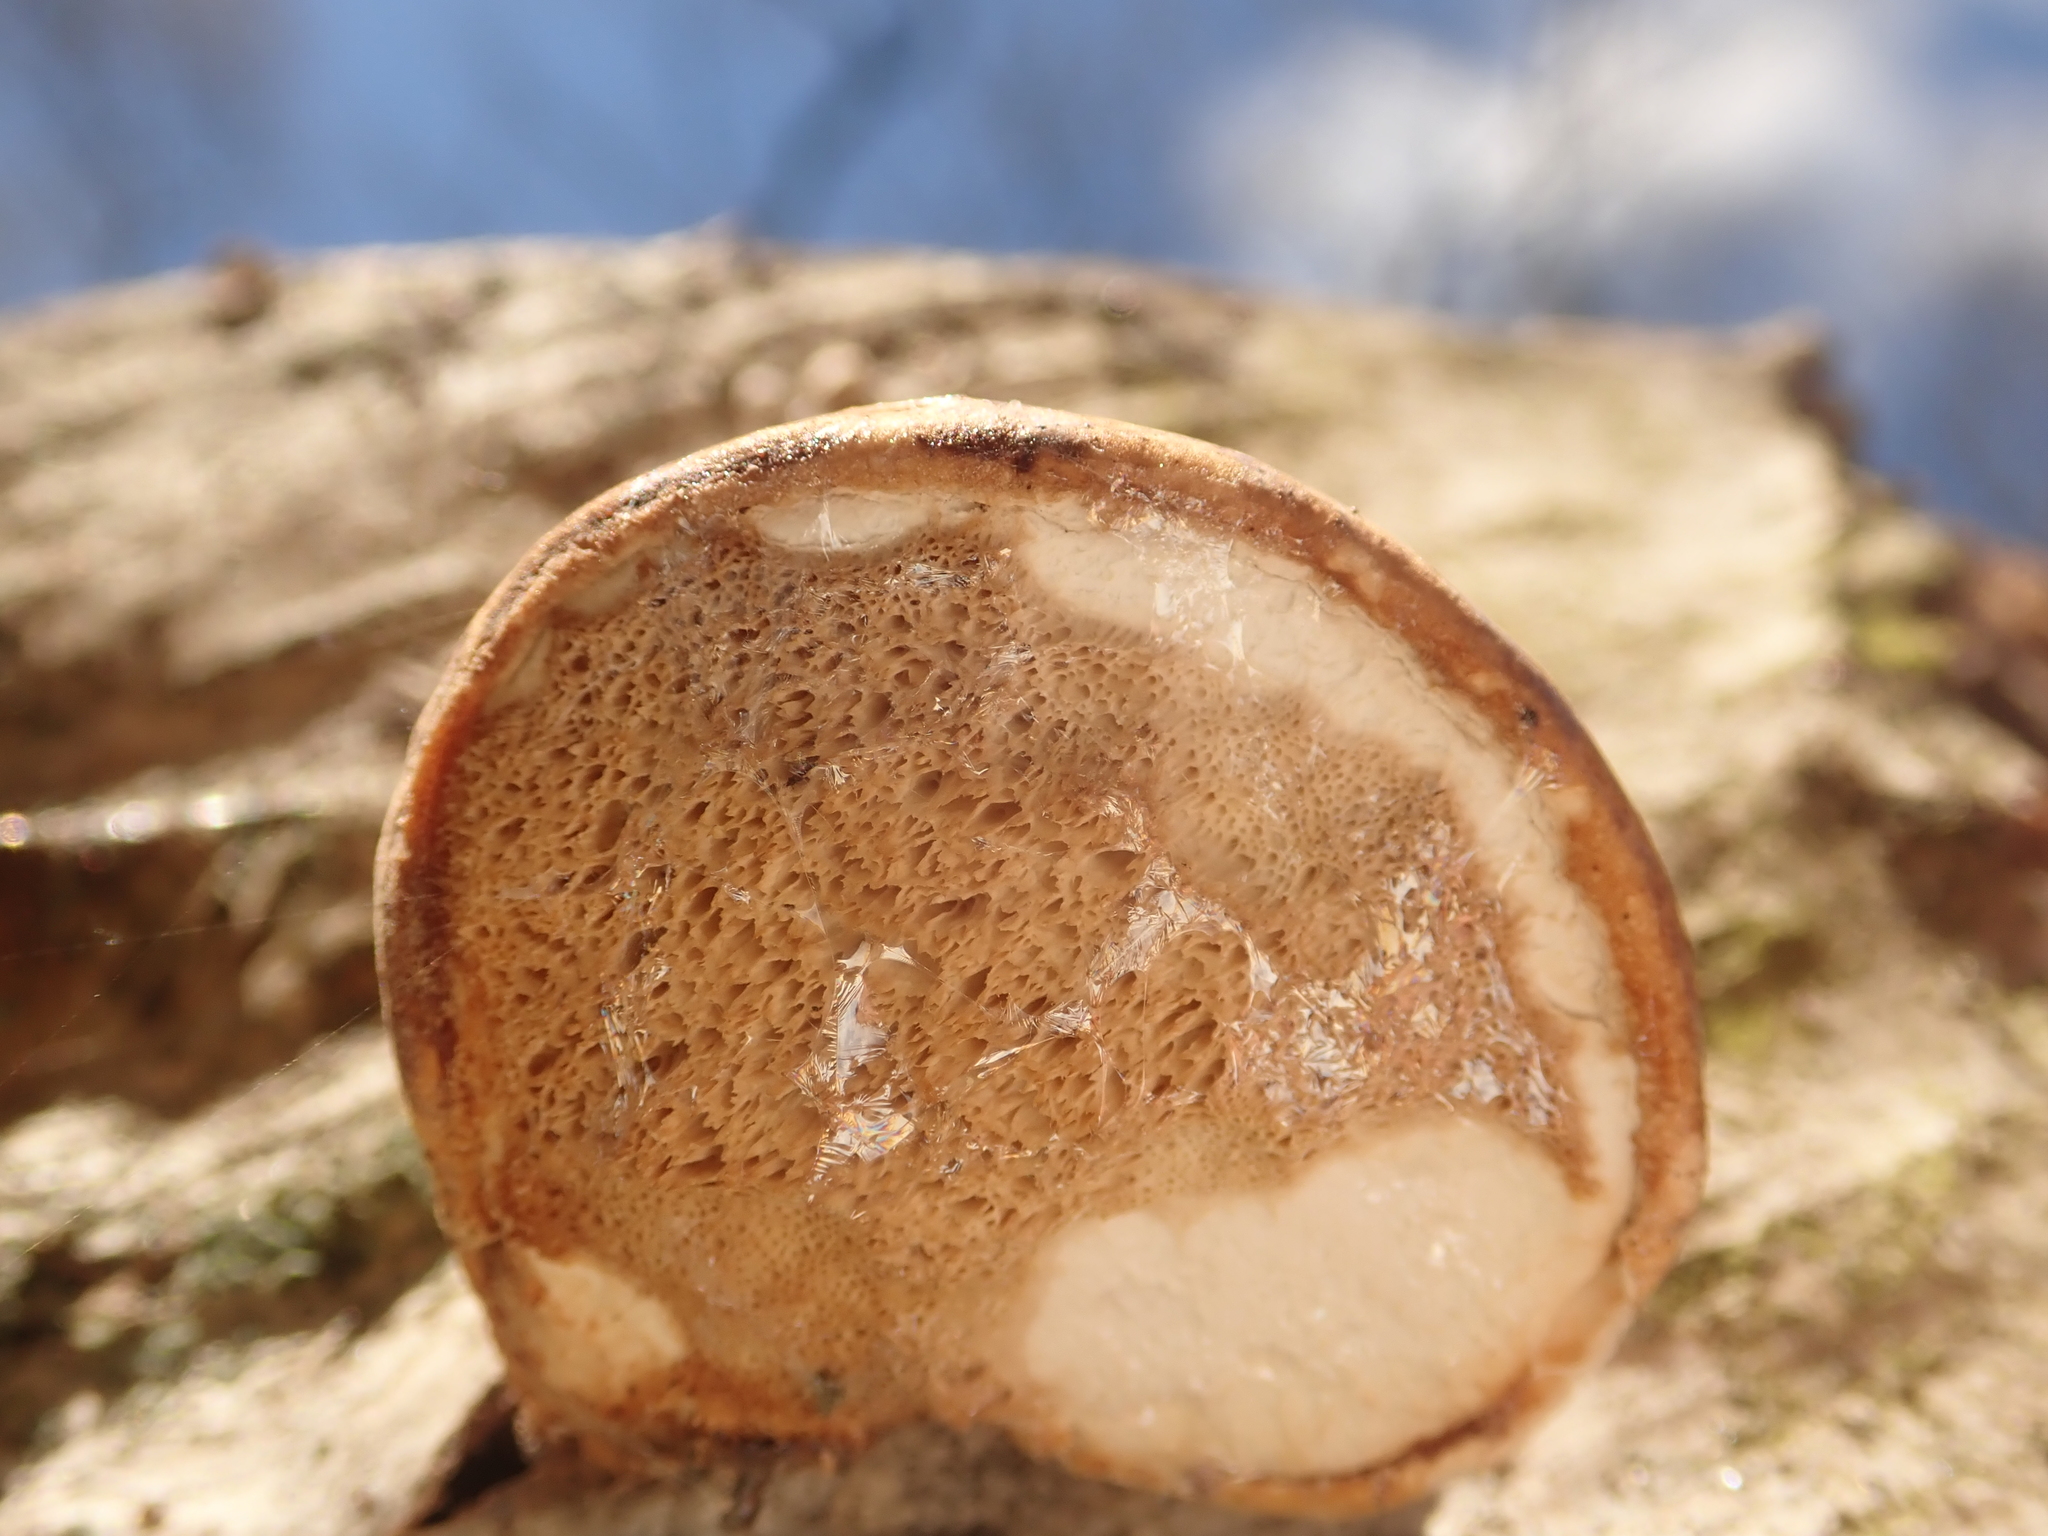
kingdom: Fungi
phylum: Basidiomycota
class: Agaricomycetes
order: Polyporales
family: Fomitopsidaceae
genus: Fomitopsis
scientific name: Fomitopsis betulina
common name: Birch polypore
